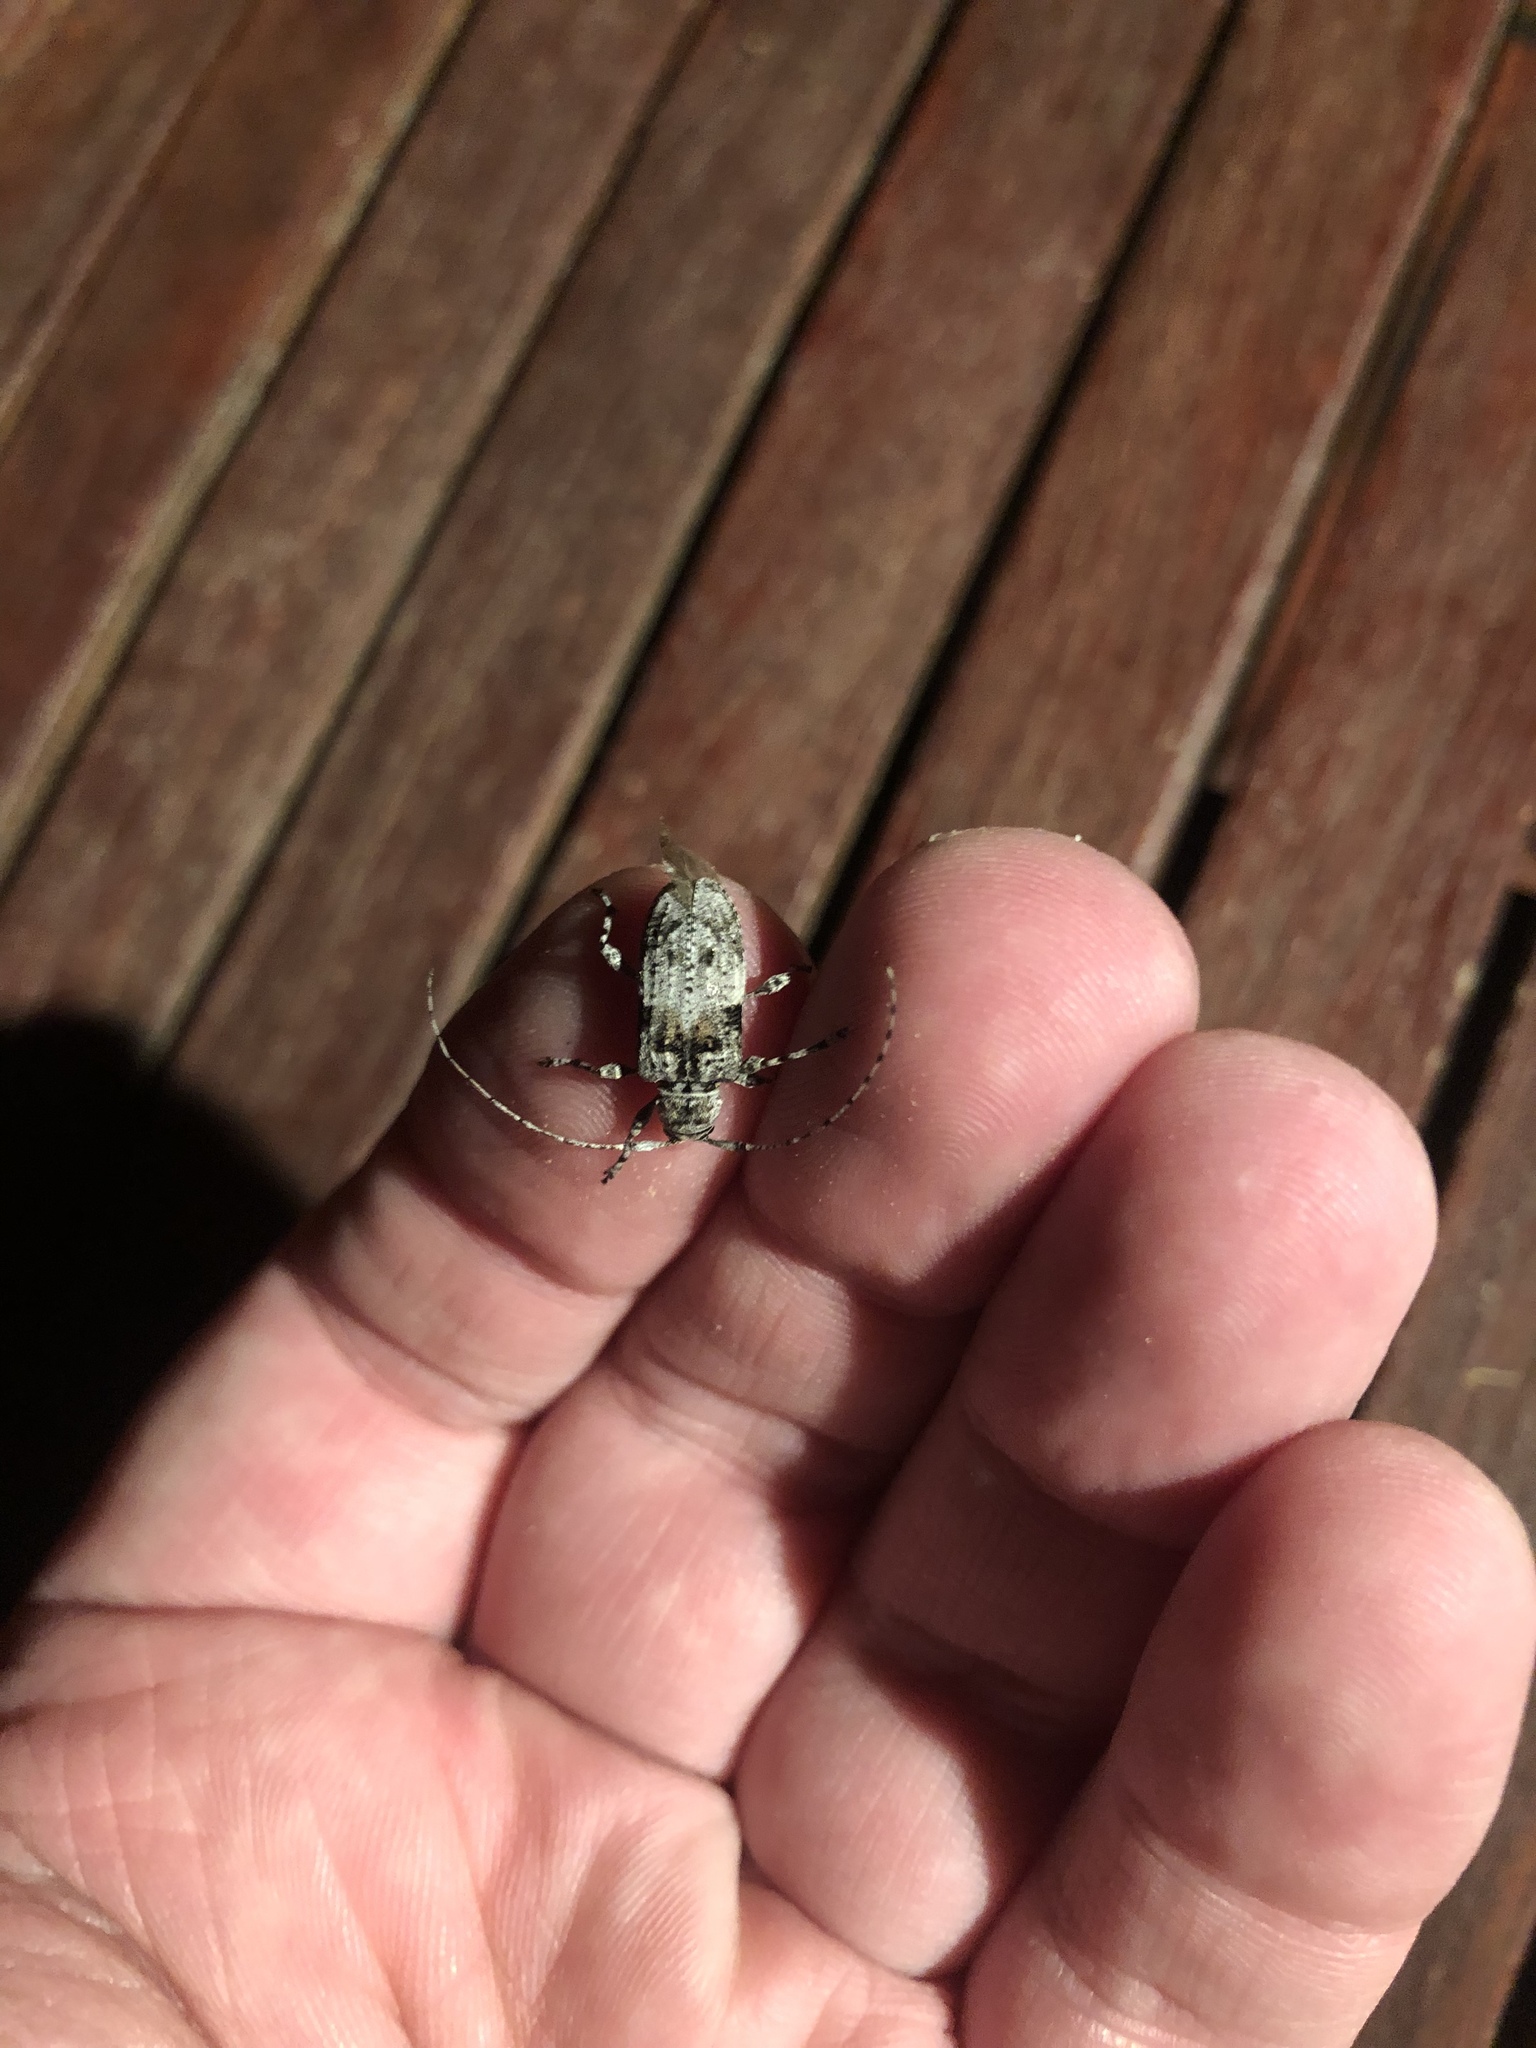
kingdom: Animalia
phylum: Arthropoda
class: Insecta
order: Coleoptera
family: Cerambycidae
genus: Pseudastylopsis
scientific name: Pseudastylopsis nebulosus
